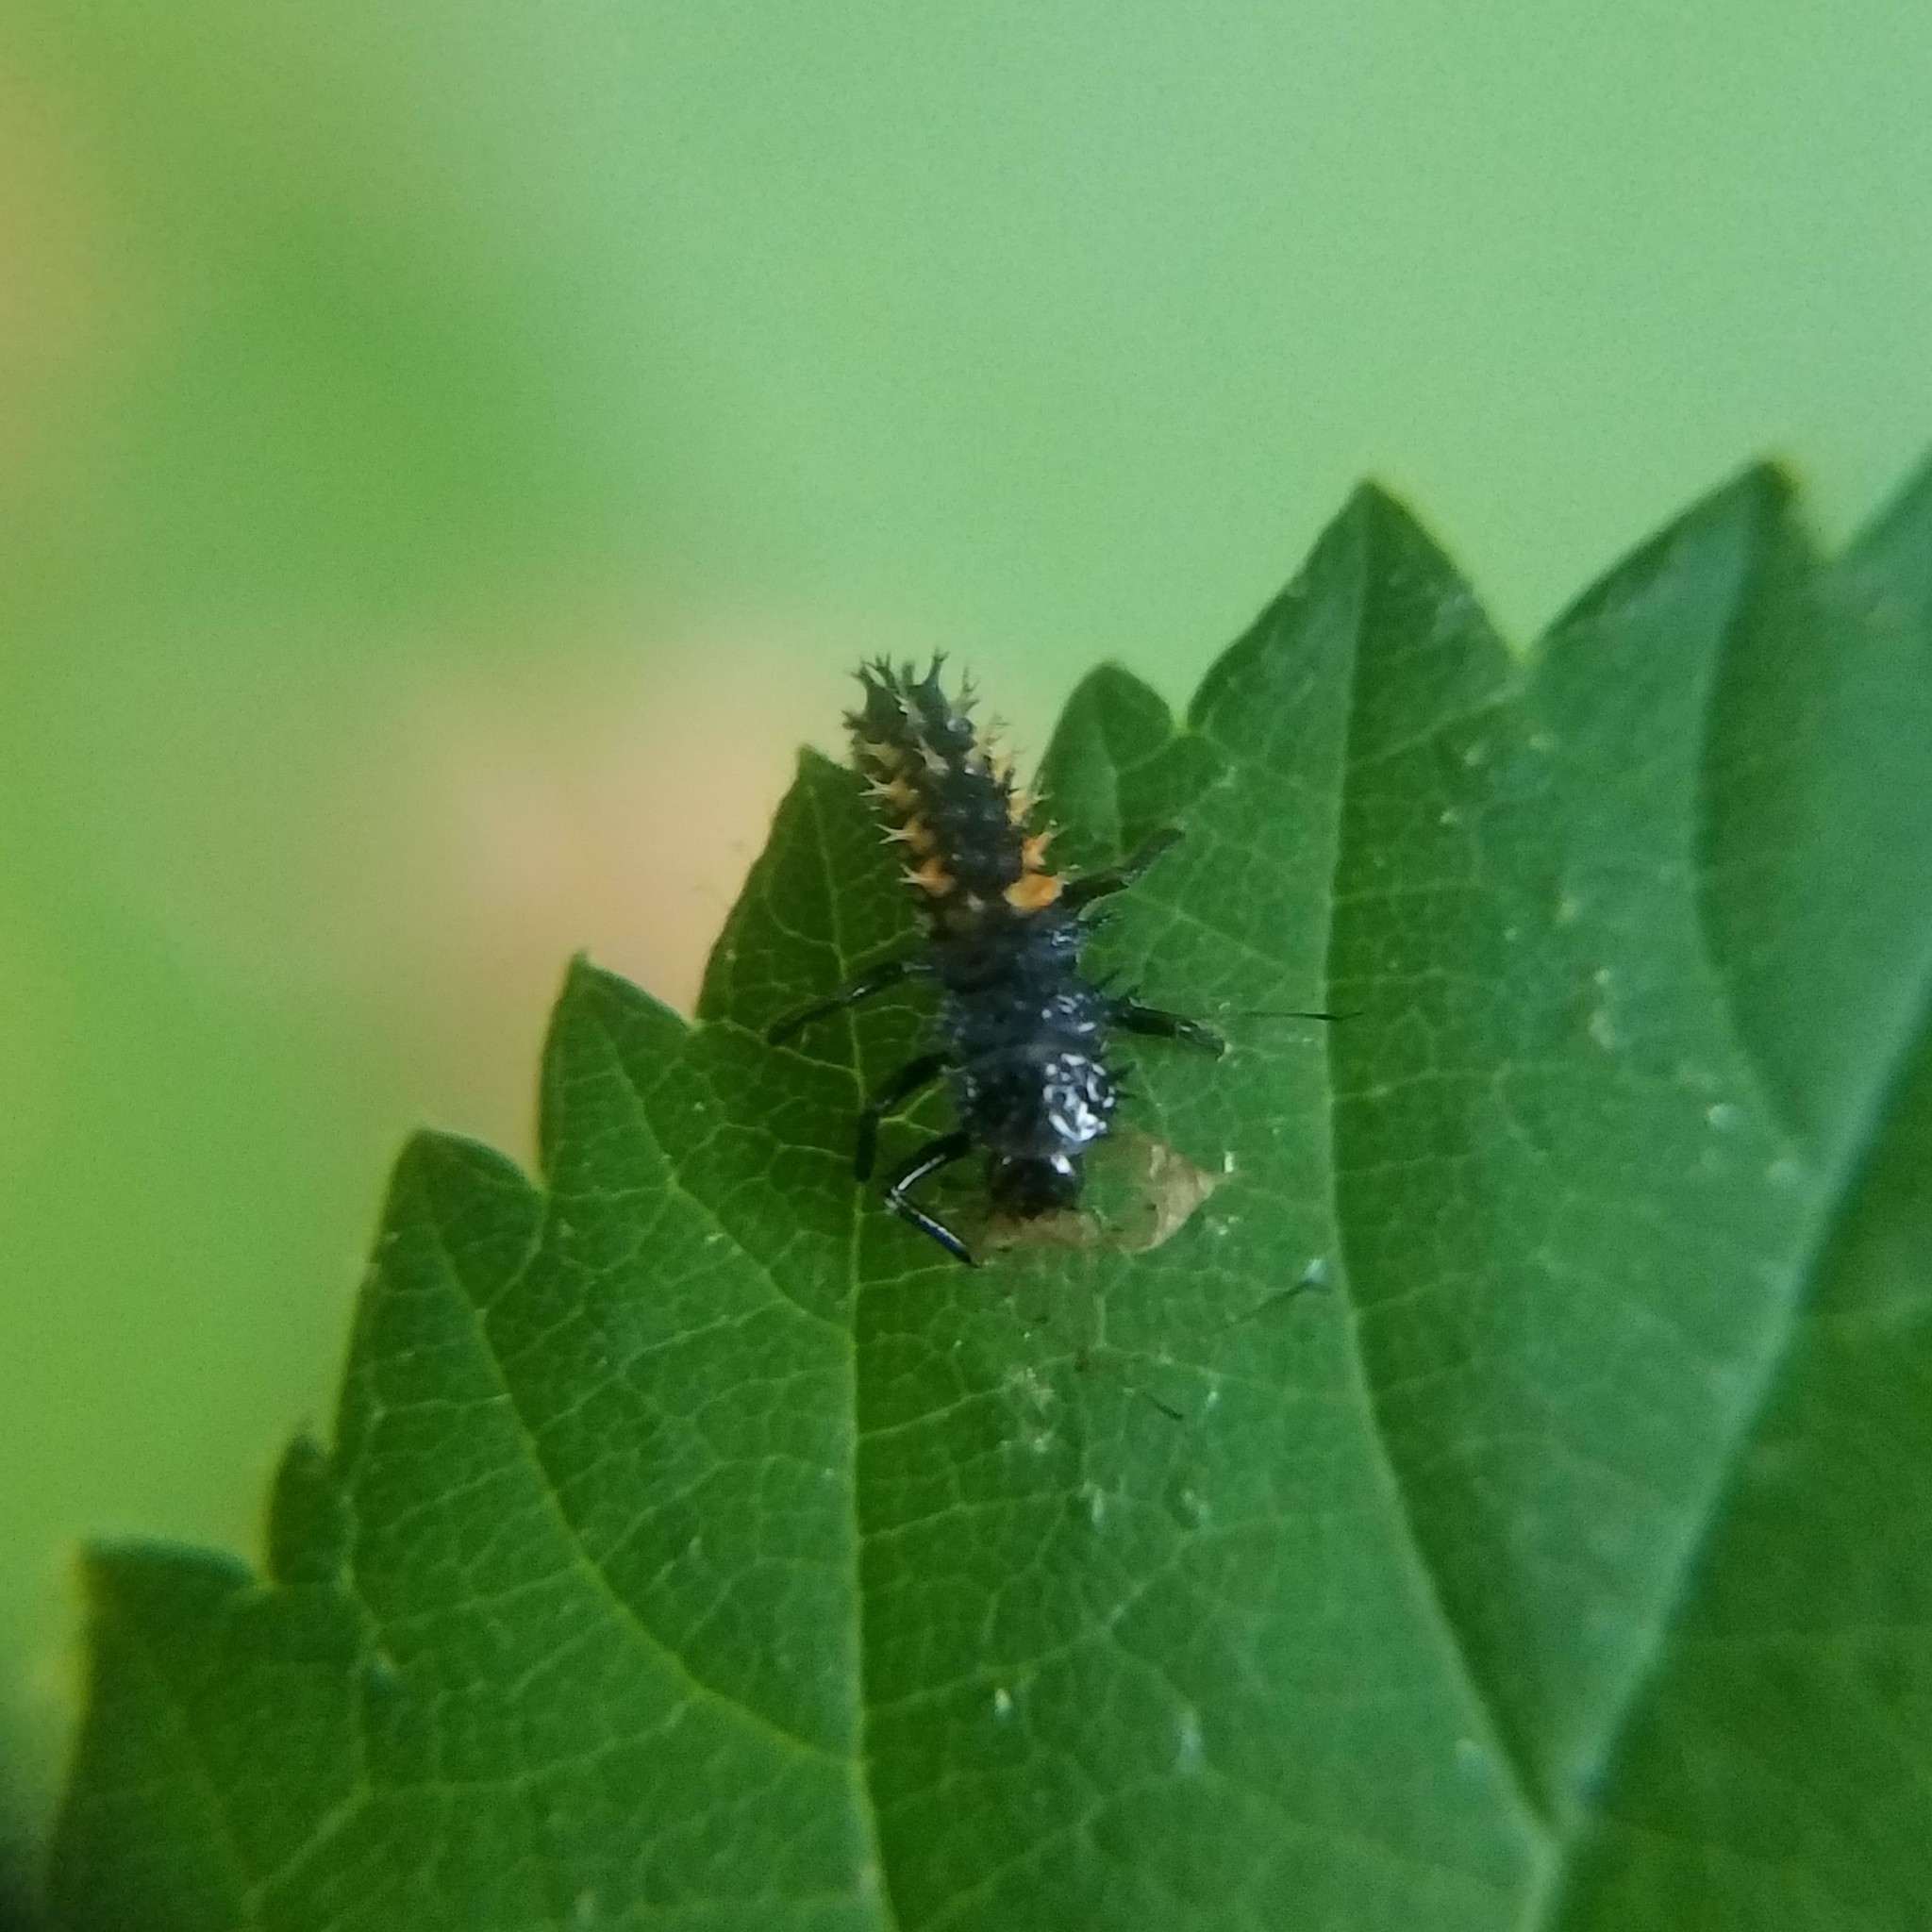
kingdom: Animalia
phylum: Arthropoda
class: Insecta
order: Coleoptera
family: Coccinellidae
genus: Harmonia
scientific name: Harmonia axyridis
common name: Harlequin ladybird
